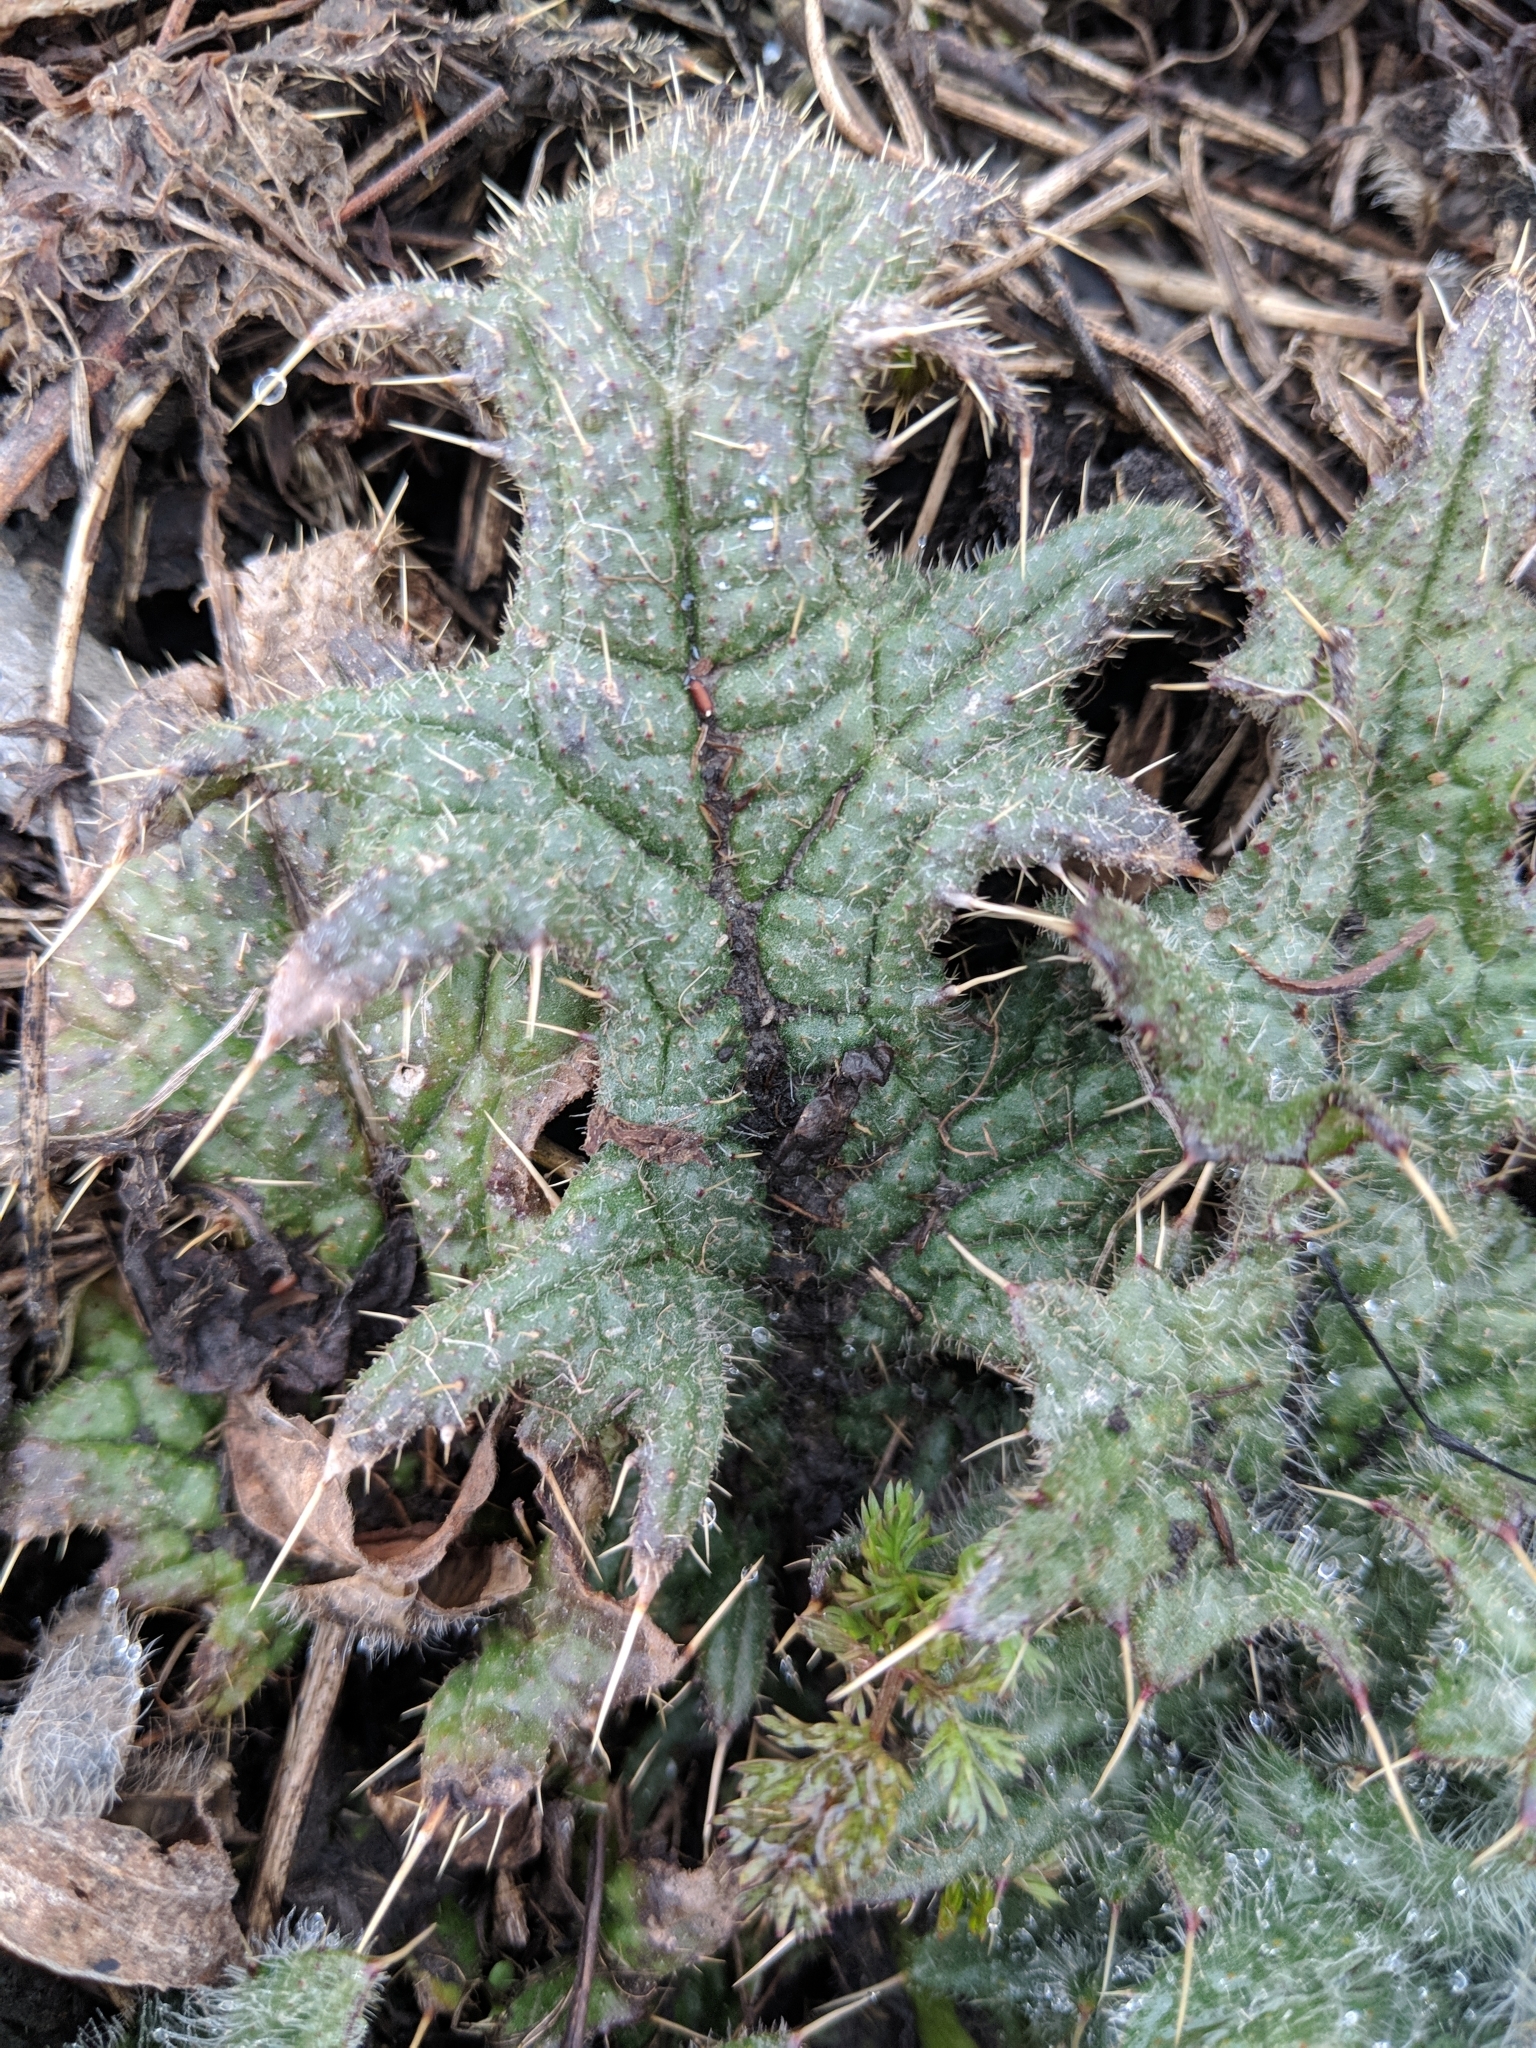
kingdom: Plantae
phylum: Tracheophyta
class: Magnoliopsida
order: Asterales
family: Asteraceae
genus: Cirsium
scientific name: Cirsium vulgare
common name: Bull thistle
